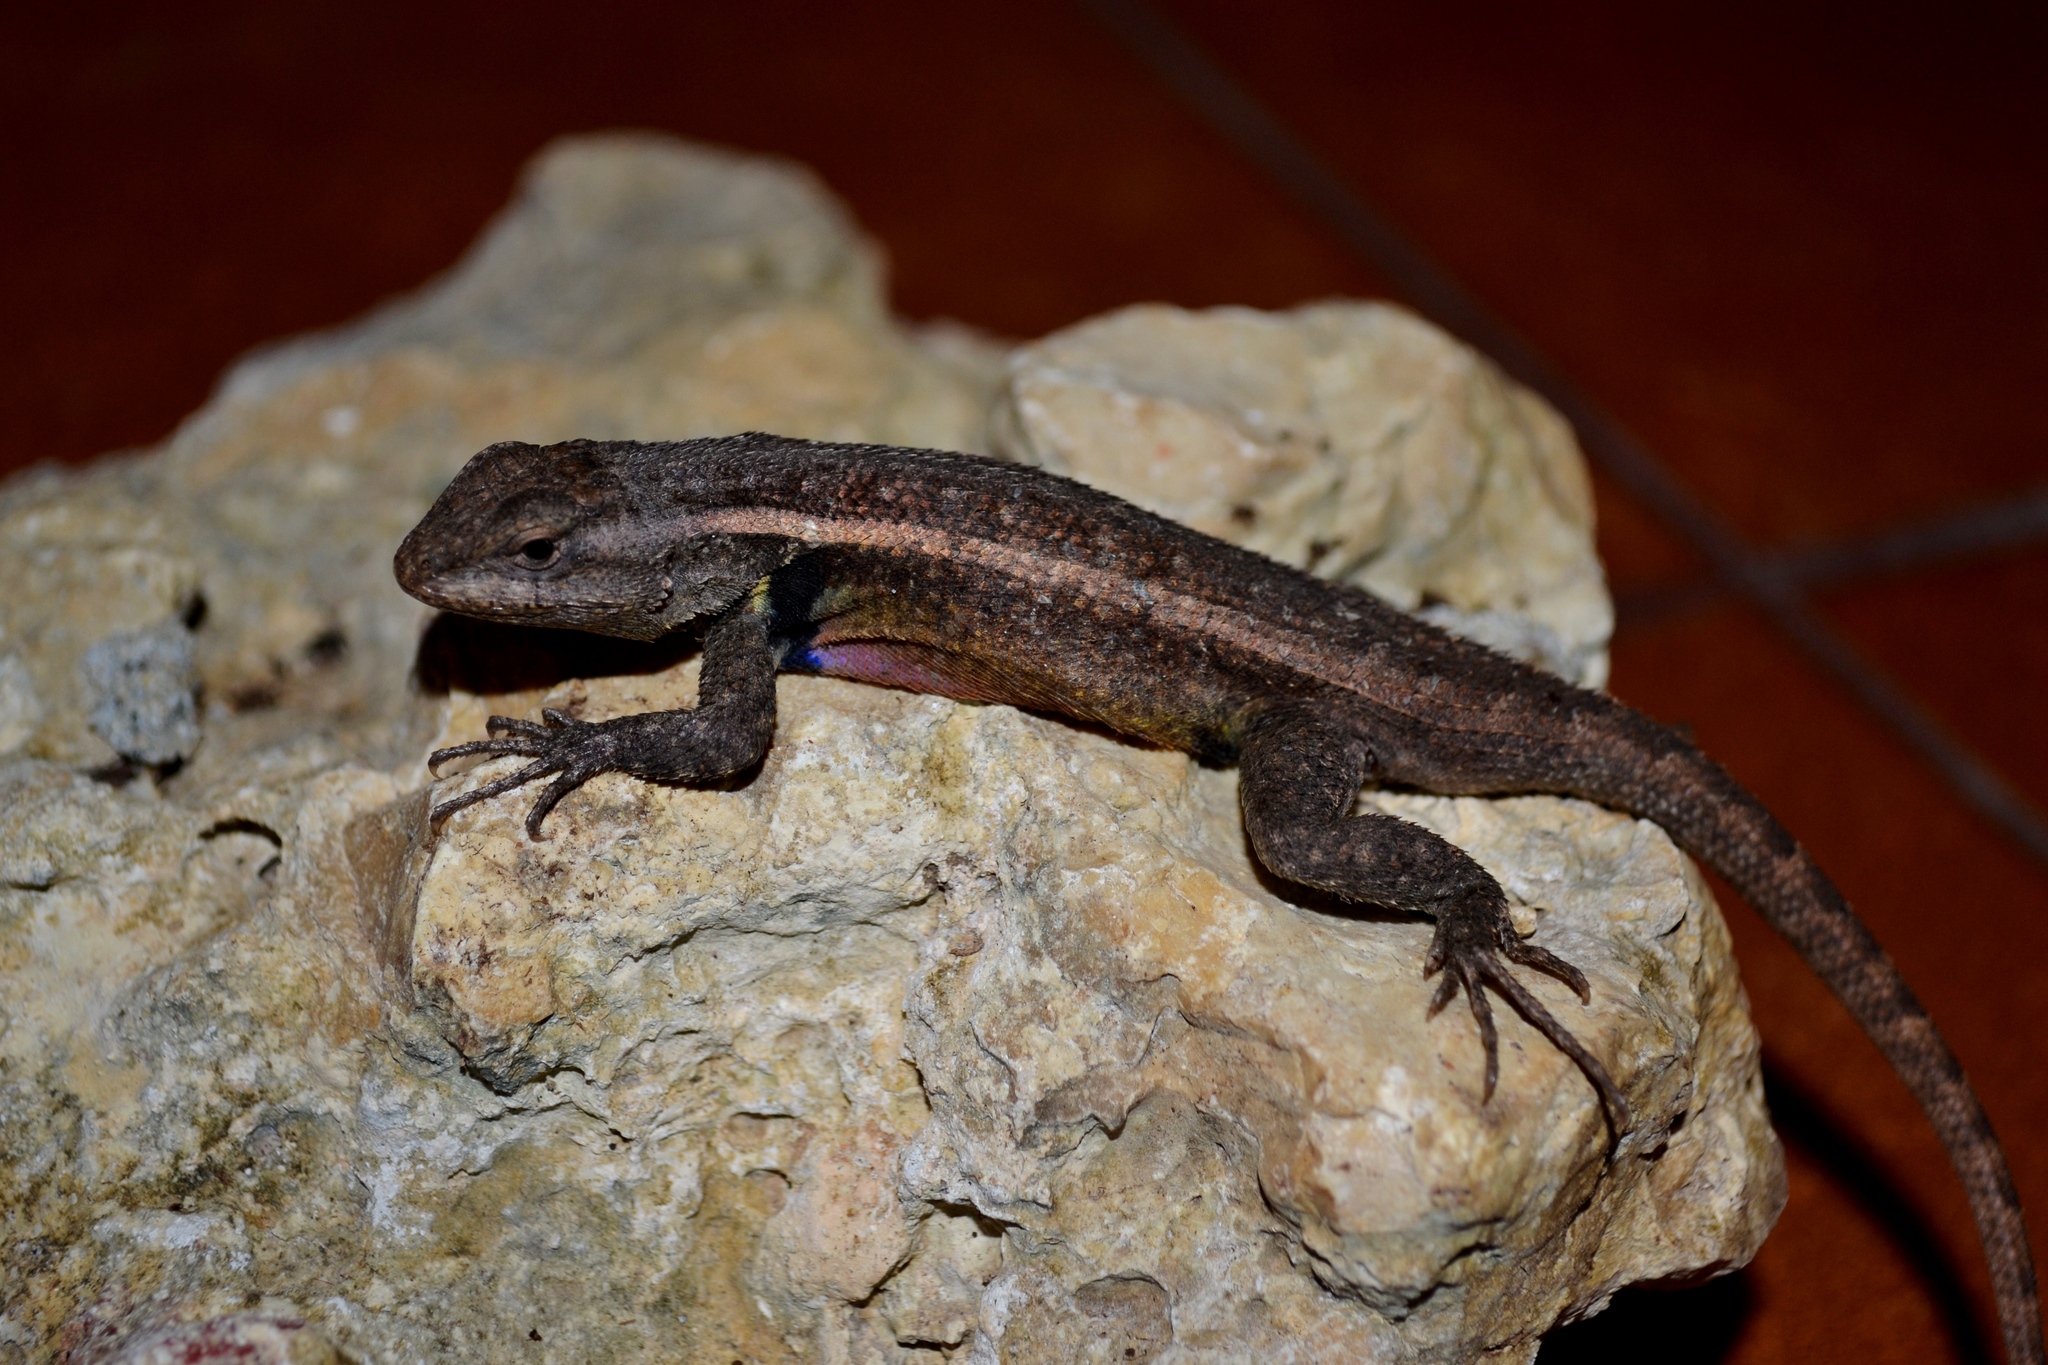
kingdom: Animalia
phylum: Chordata
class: Squamata
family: Phrynosomatidae
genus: Sceloporus
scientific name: Sceloporus variabilis
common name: Rosebelly lizard
